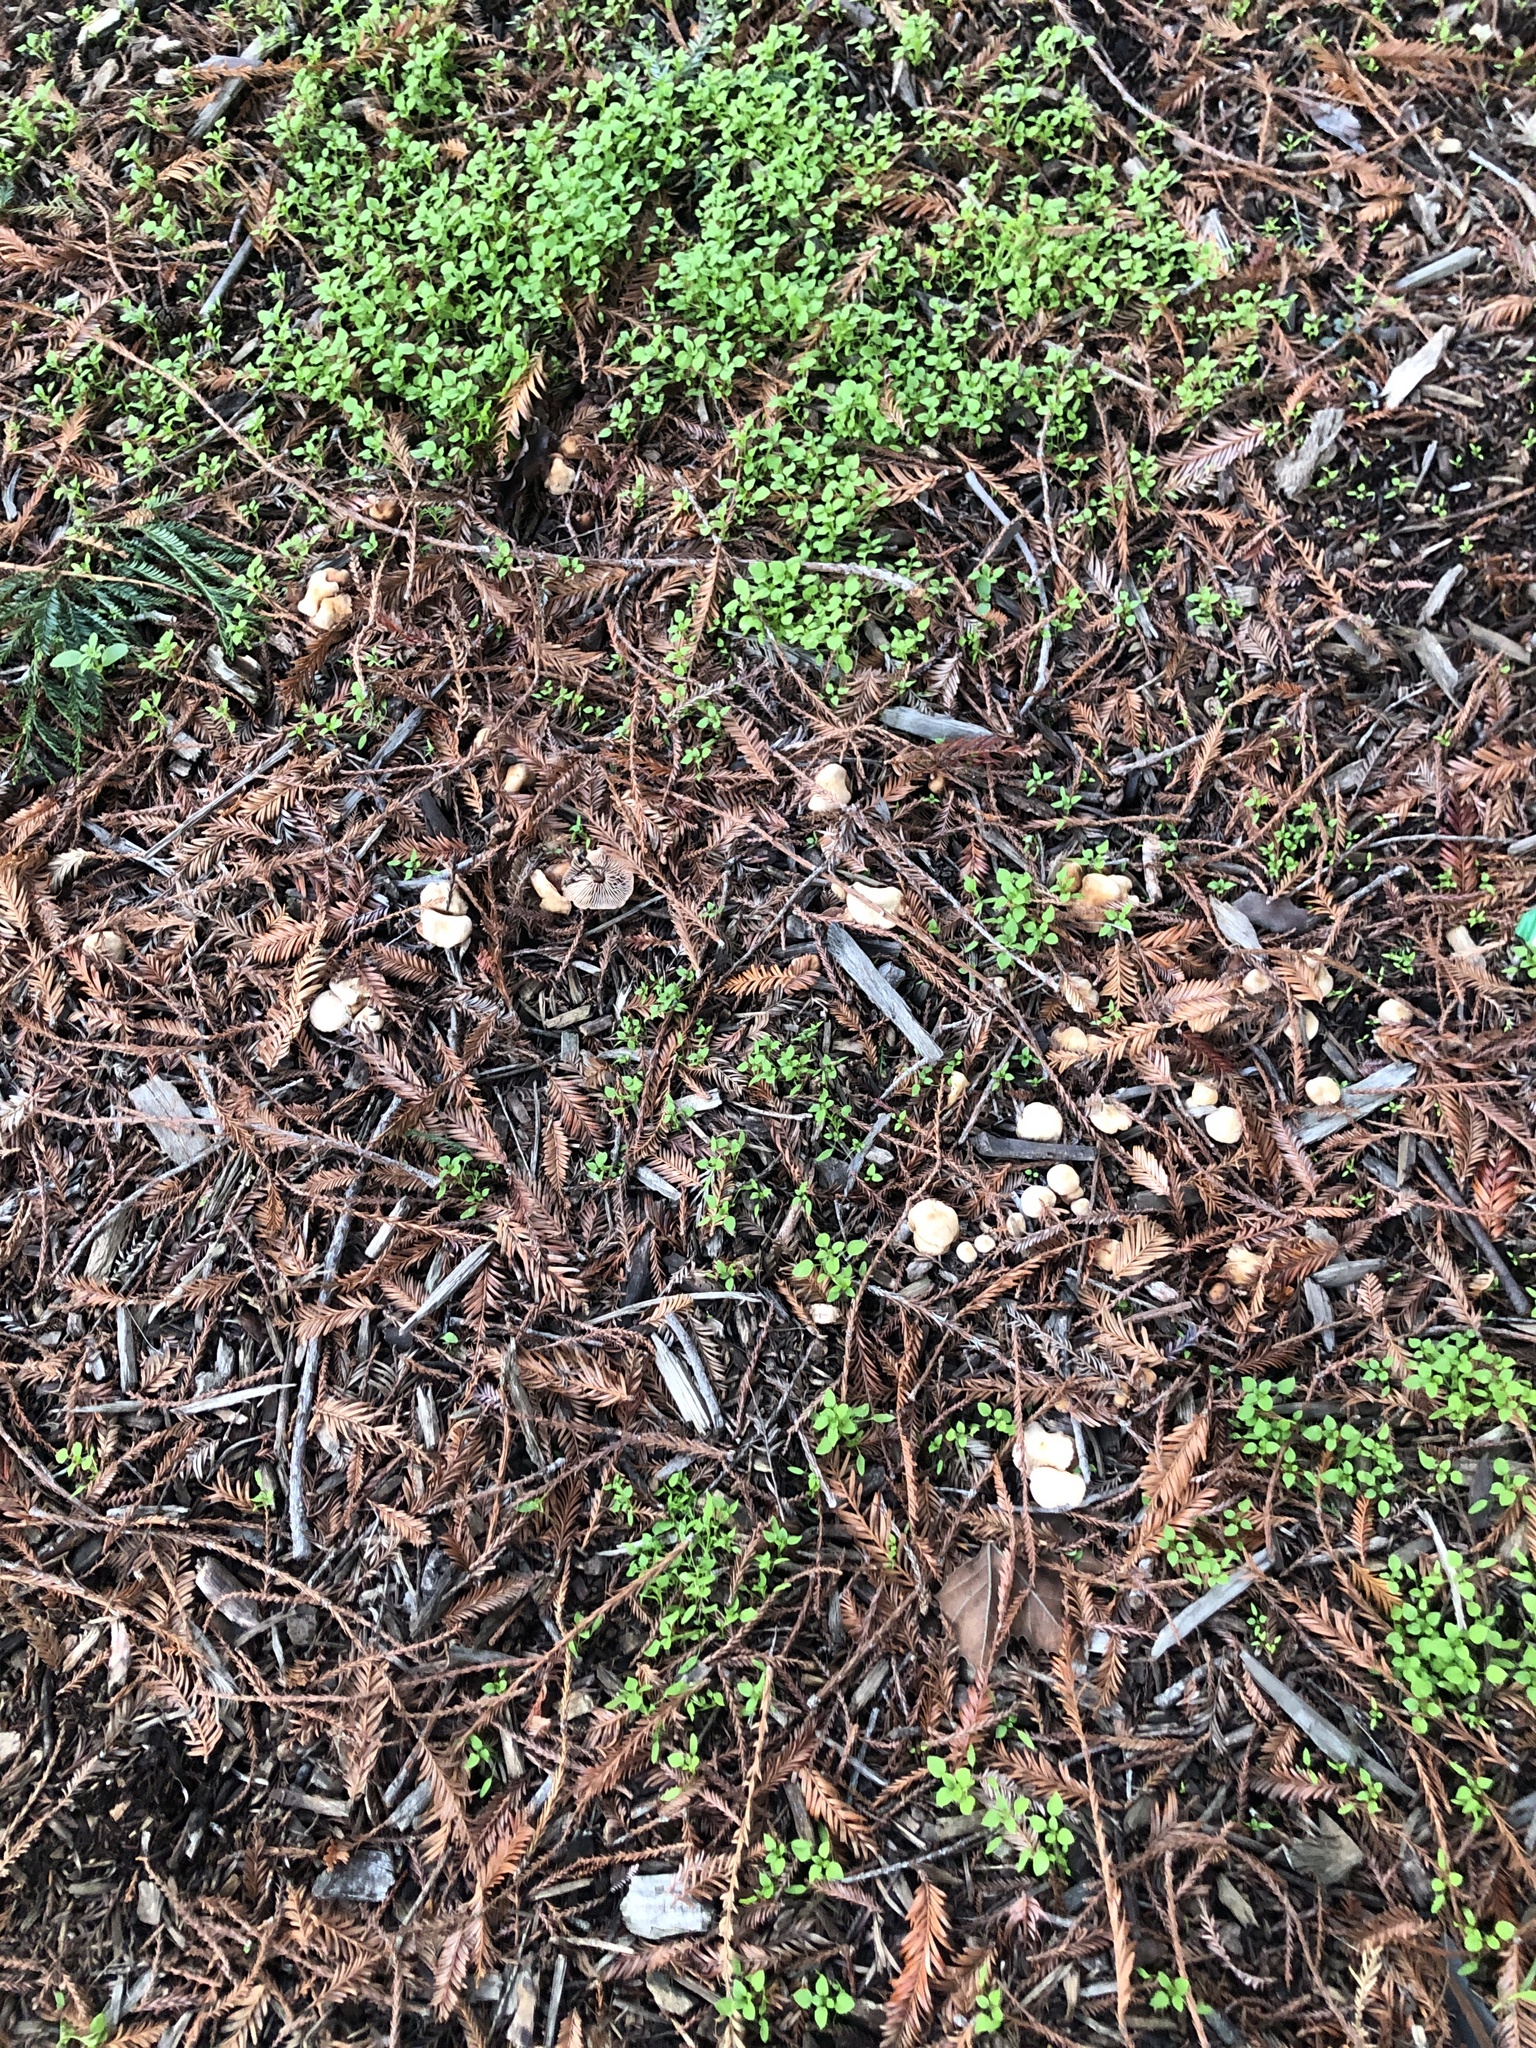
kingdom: Fungi
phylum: Basidiomycota
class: Agaricomycetes
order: Agaricales
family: Omphalotaceae
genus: Gymnopus
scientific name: Gymnopus brassicolens
